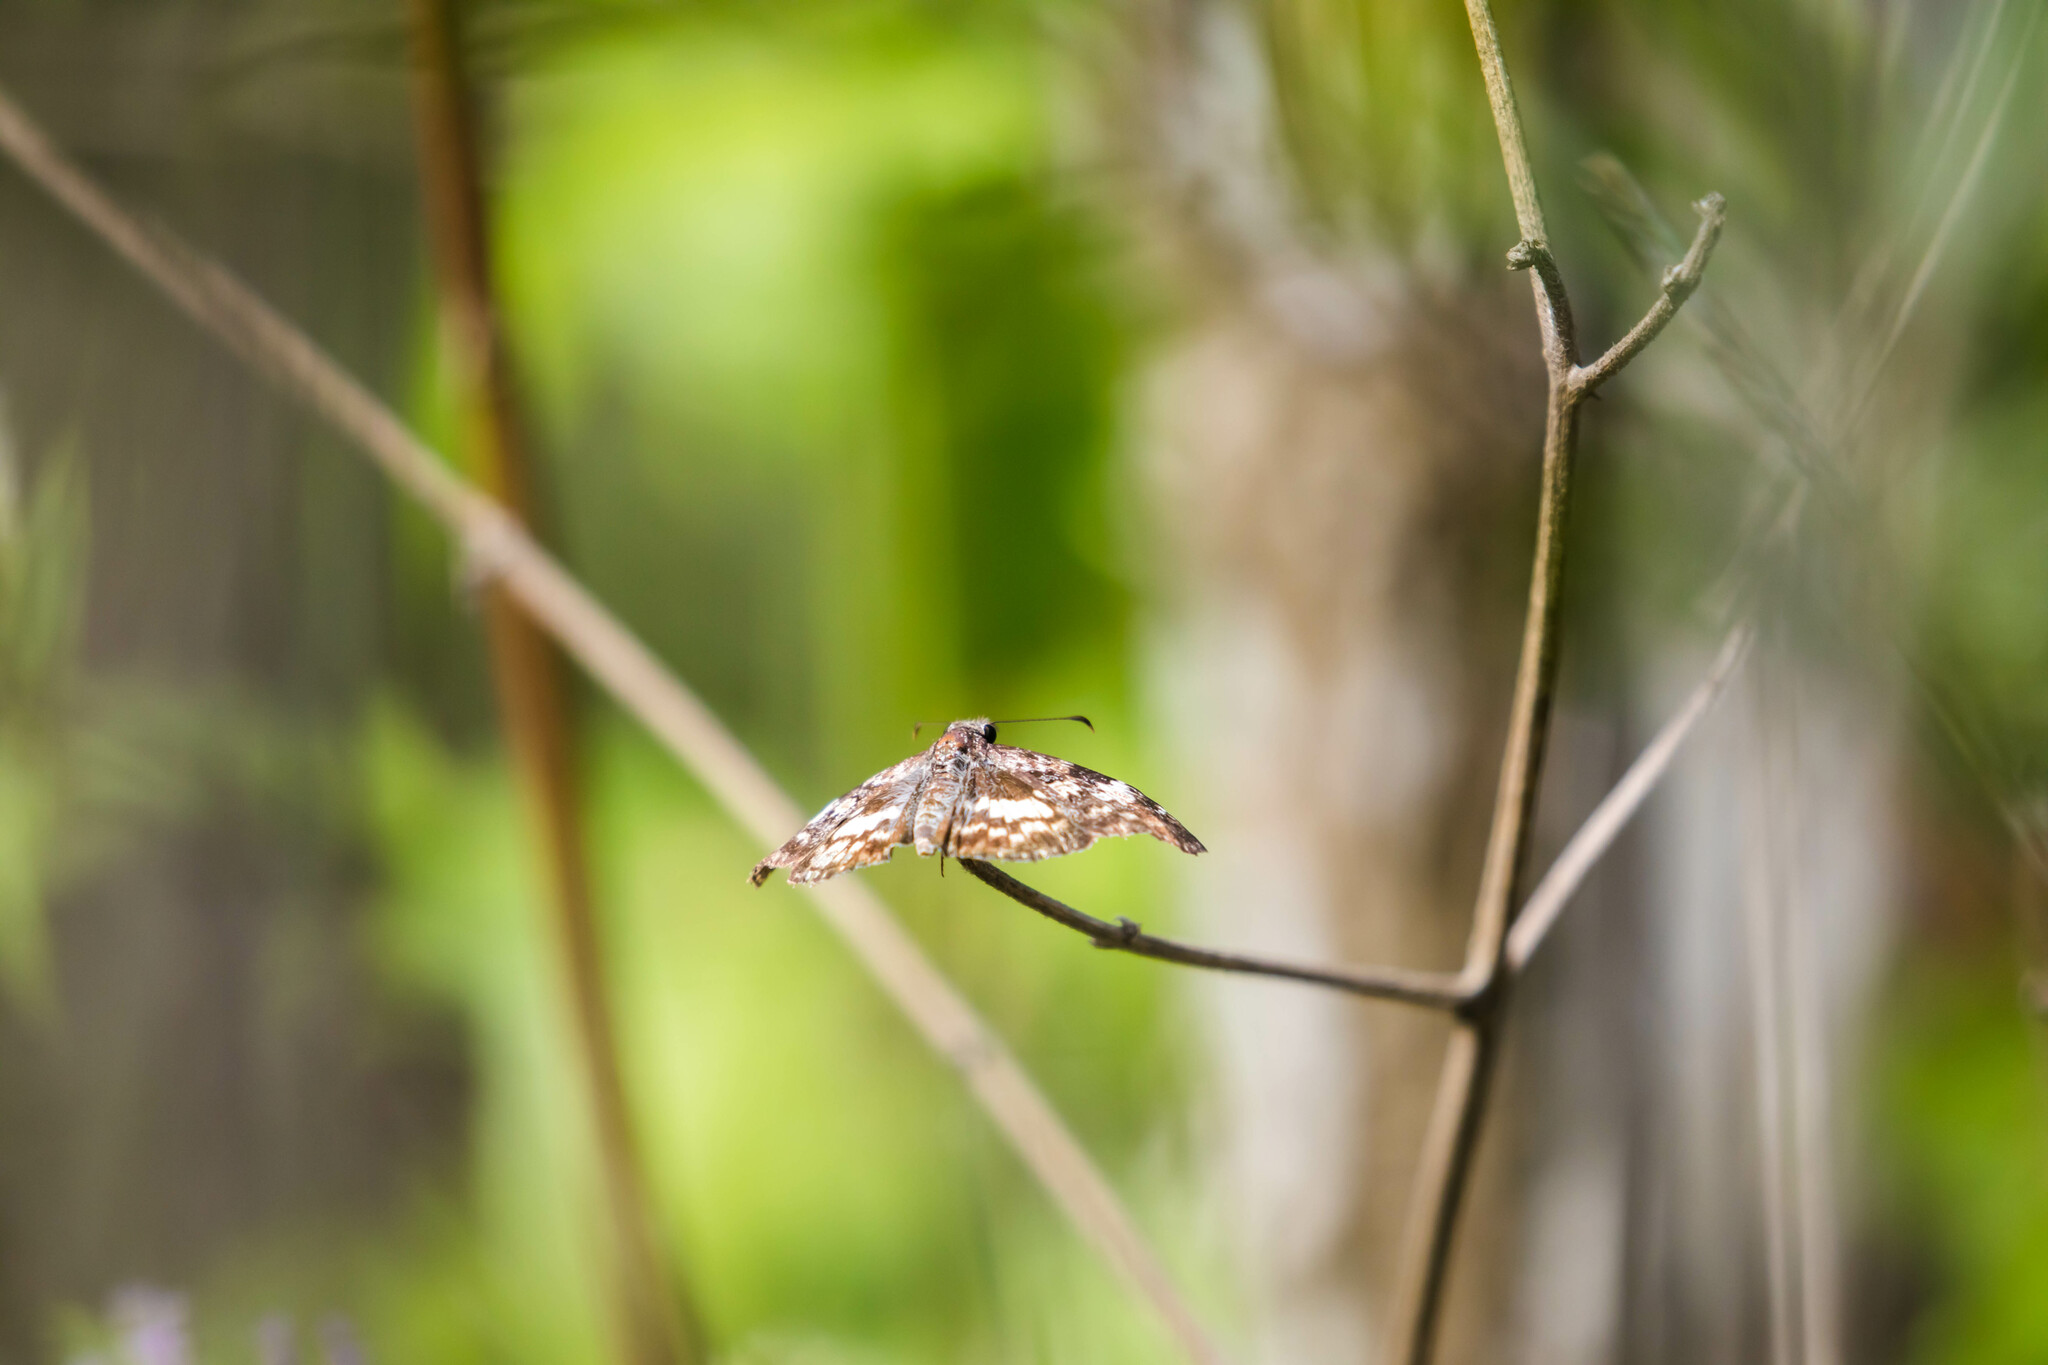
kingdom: Animalia
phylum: Arthropoda
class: Insecta
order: Lepidoptera
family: Hesperiidae
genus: Chiothion
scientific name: Chiothion georgina
